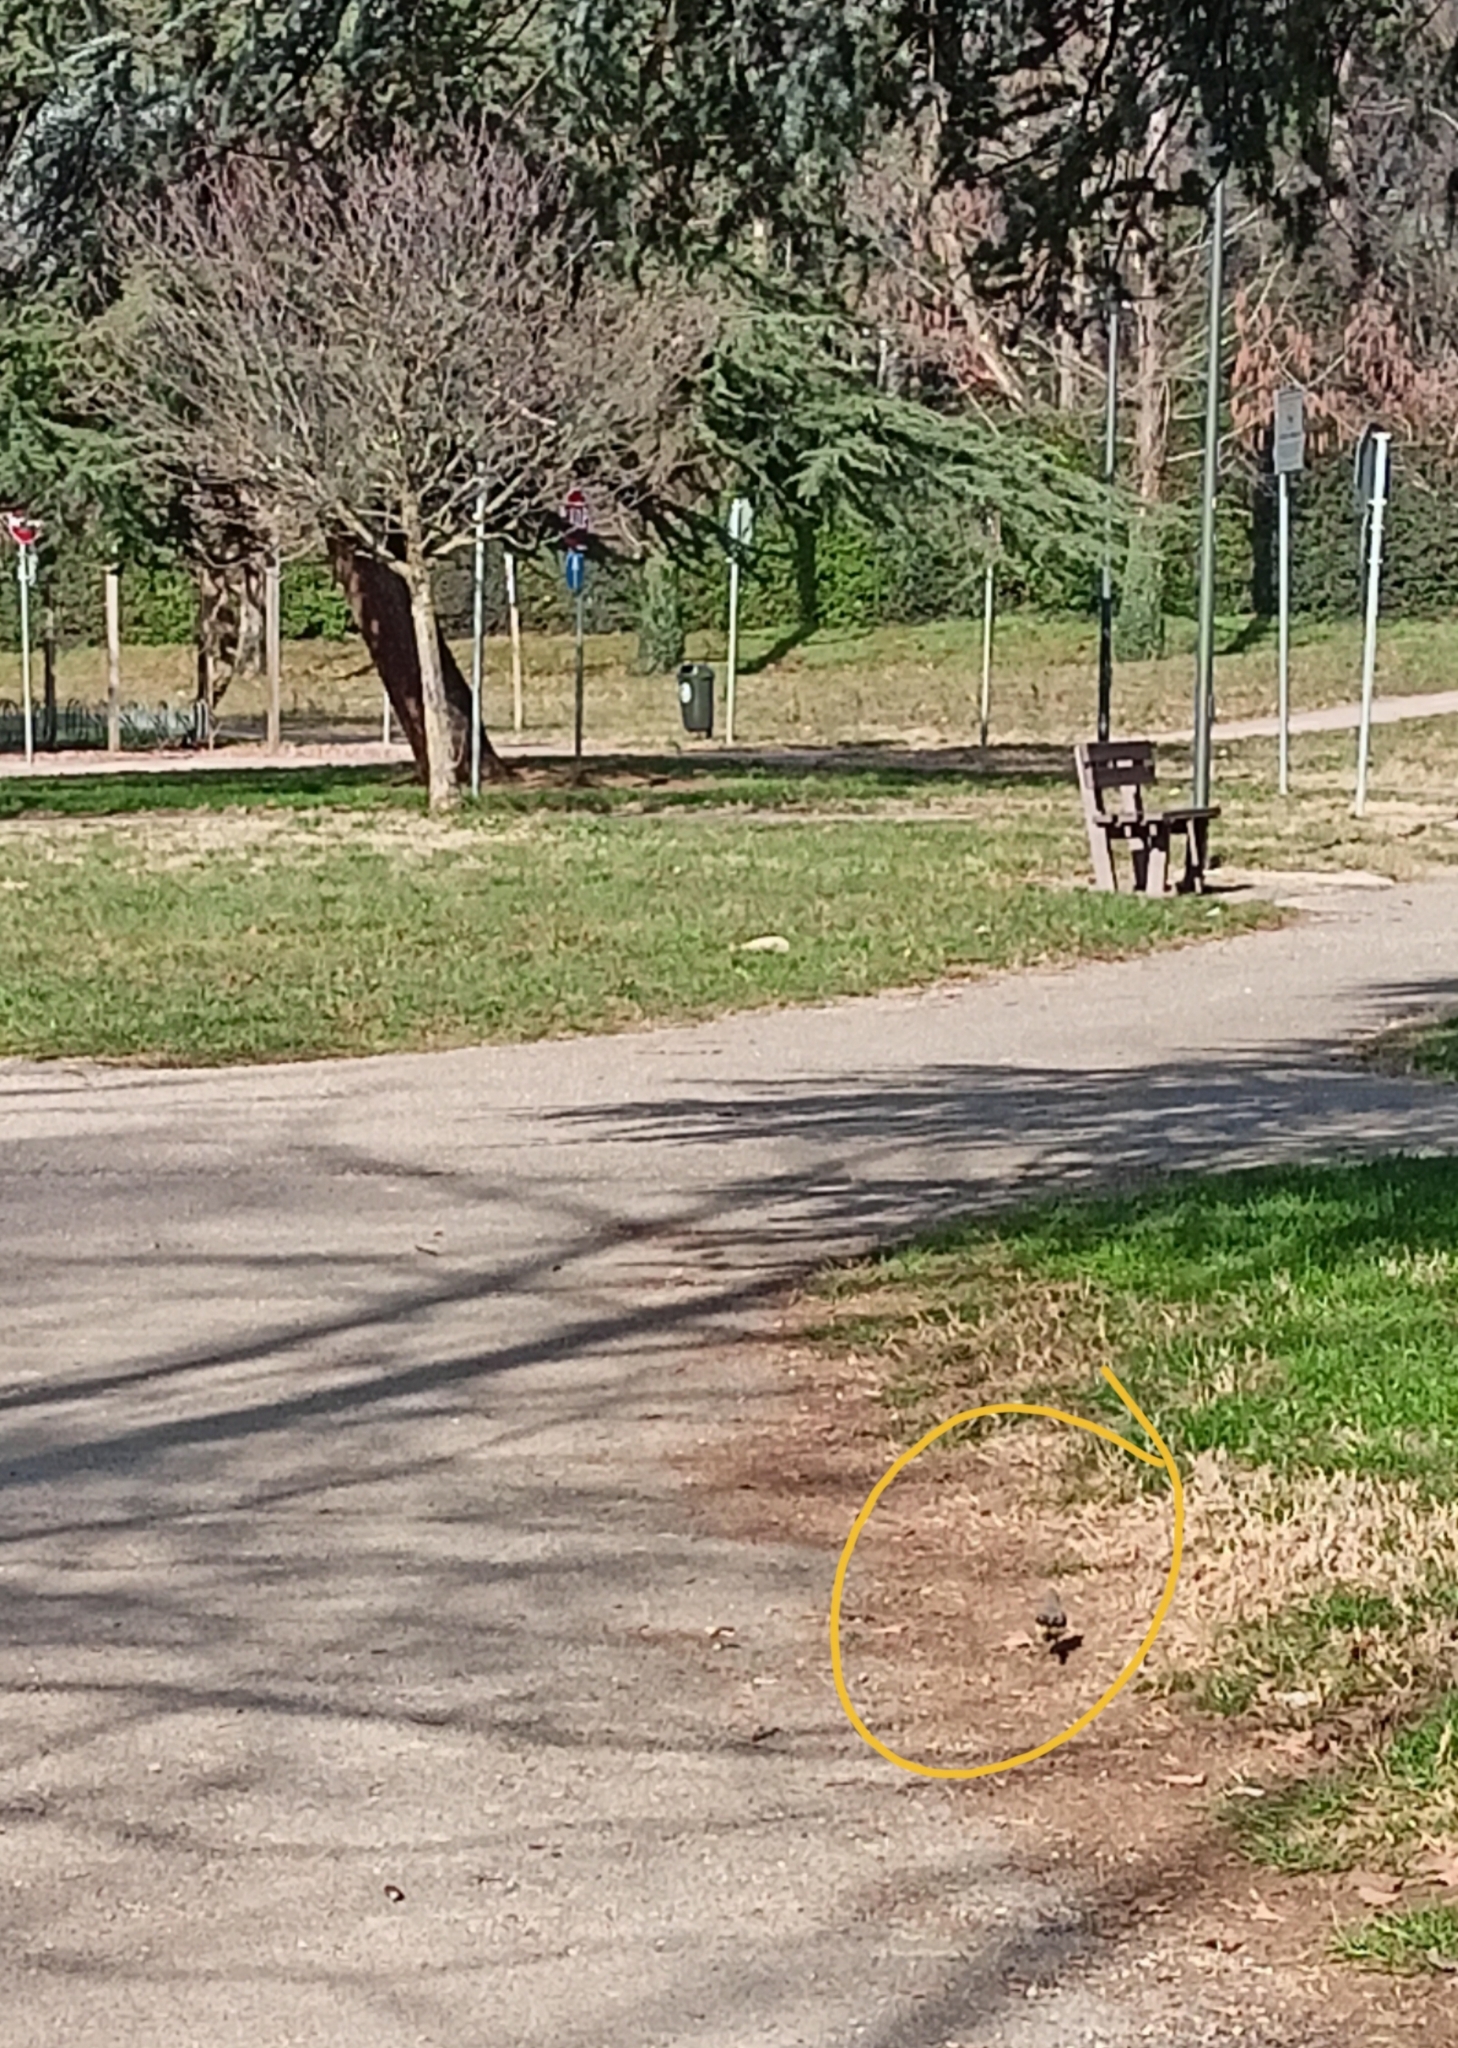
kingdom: Animalia
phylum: Chordata
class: Aves
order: Passeriformes
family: Motacillidae
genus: Motacilla
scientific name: Motacilla cinerea
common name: Grey wagtail
